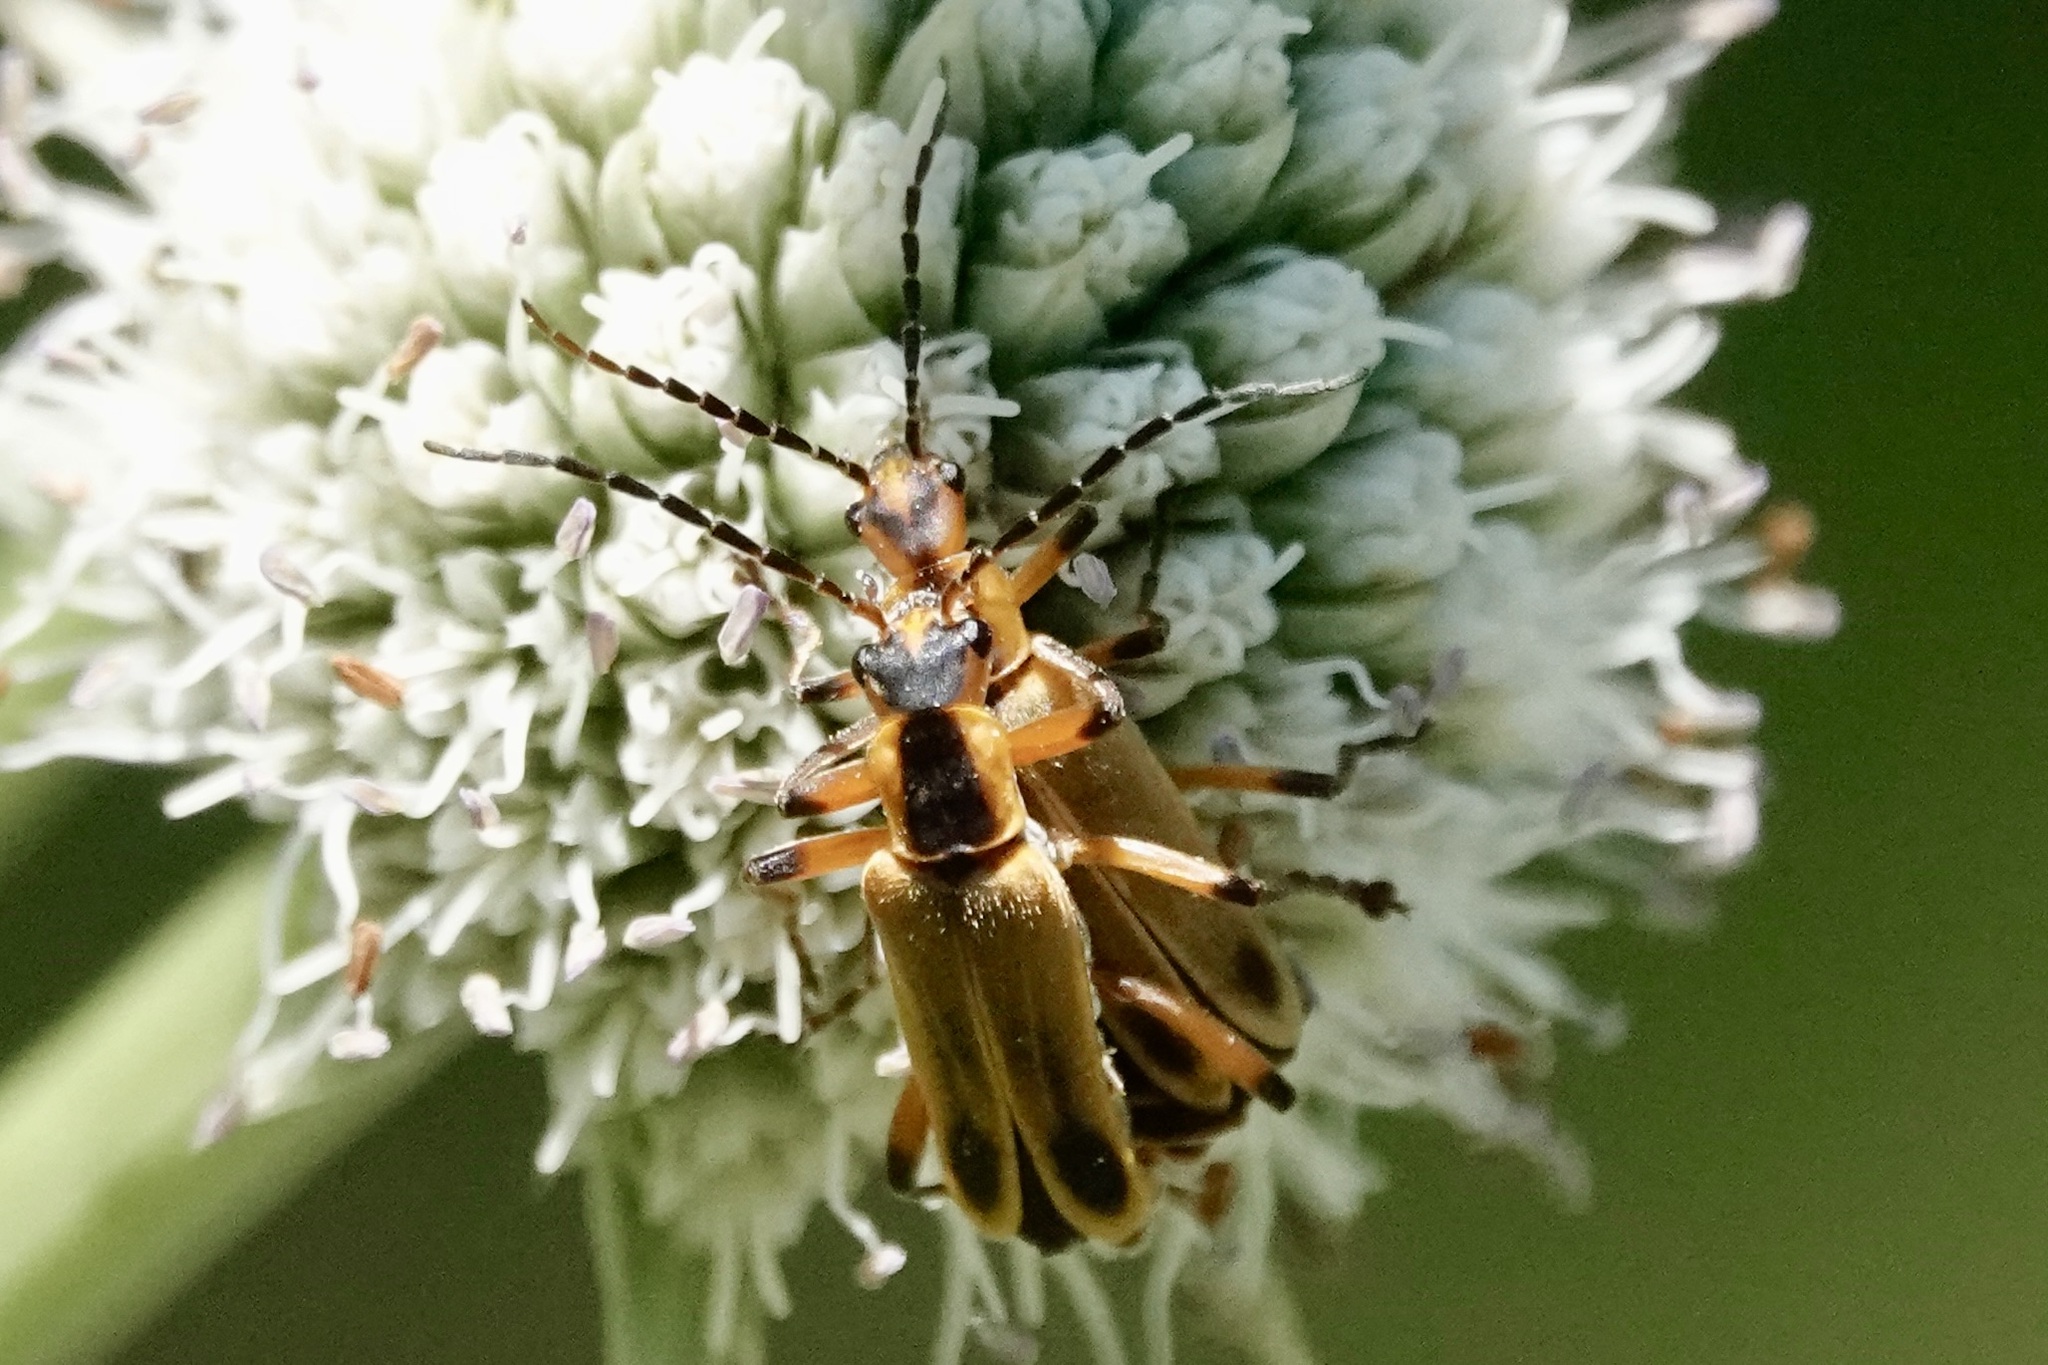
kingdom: Animalia
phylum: Arthropoda
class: Insecta
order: Coleoptera
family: Cantharidae
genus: Chauliognathus
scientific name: Chauliognathus marginatus
